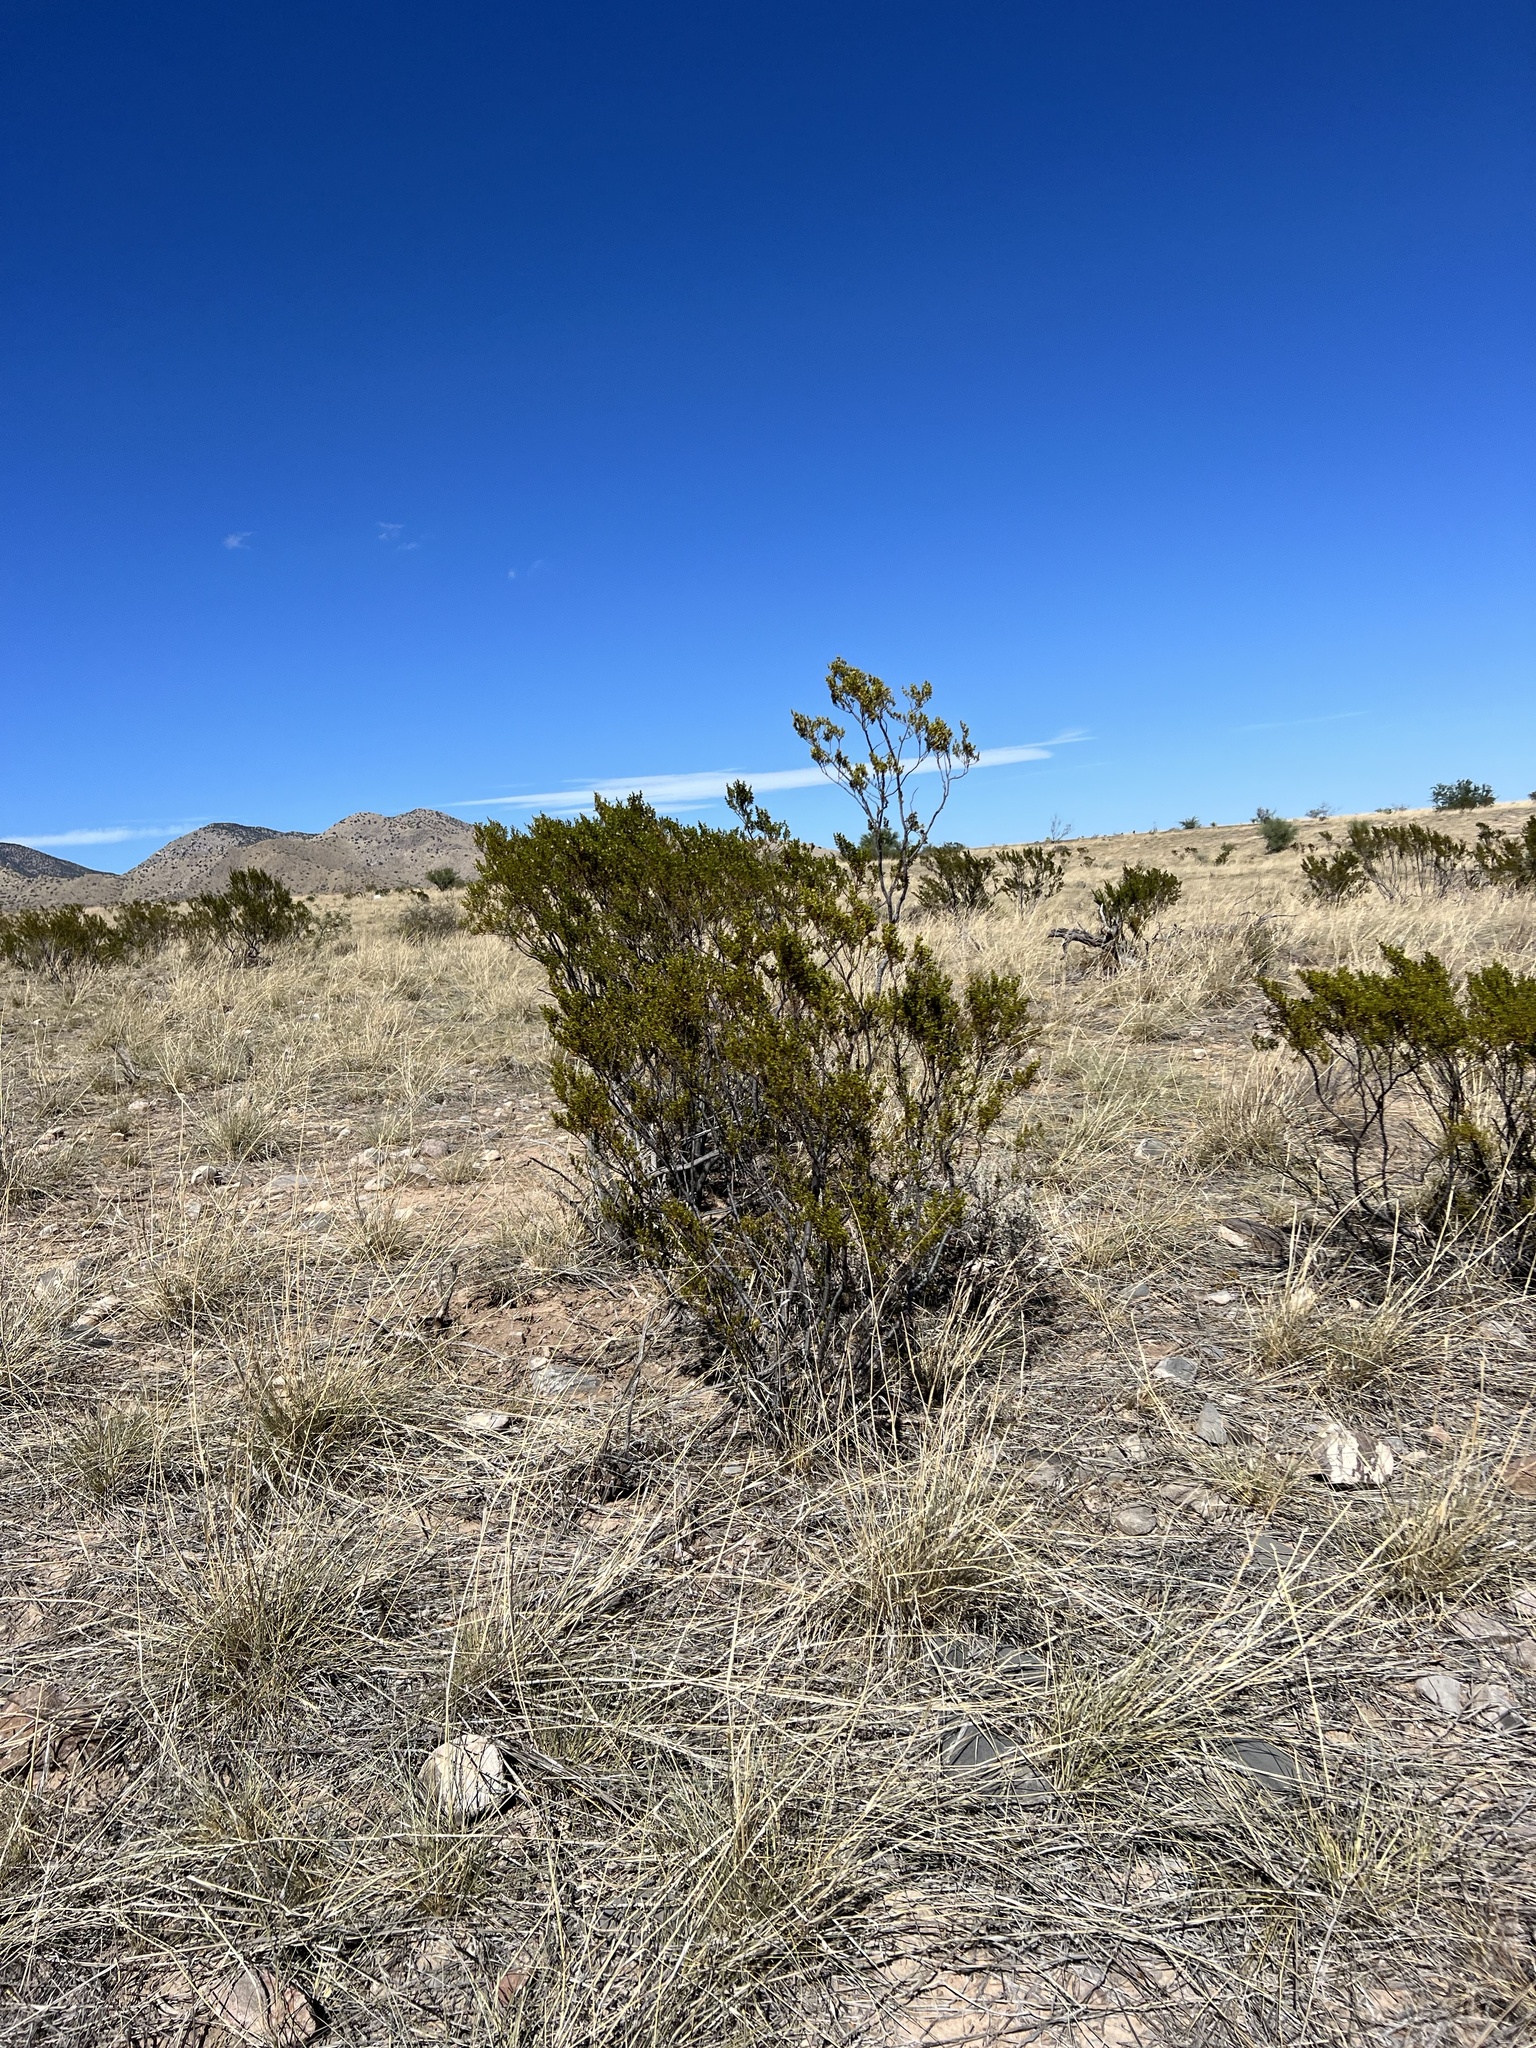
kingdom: Plantae
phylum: Tracheophyta
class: Magnoliopsida
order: Zygophyllales
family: Zygophyllaceae
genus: Larrea
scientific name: Larrea tridentata
